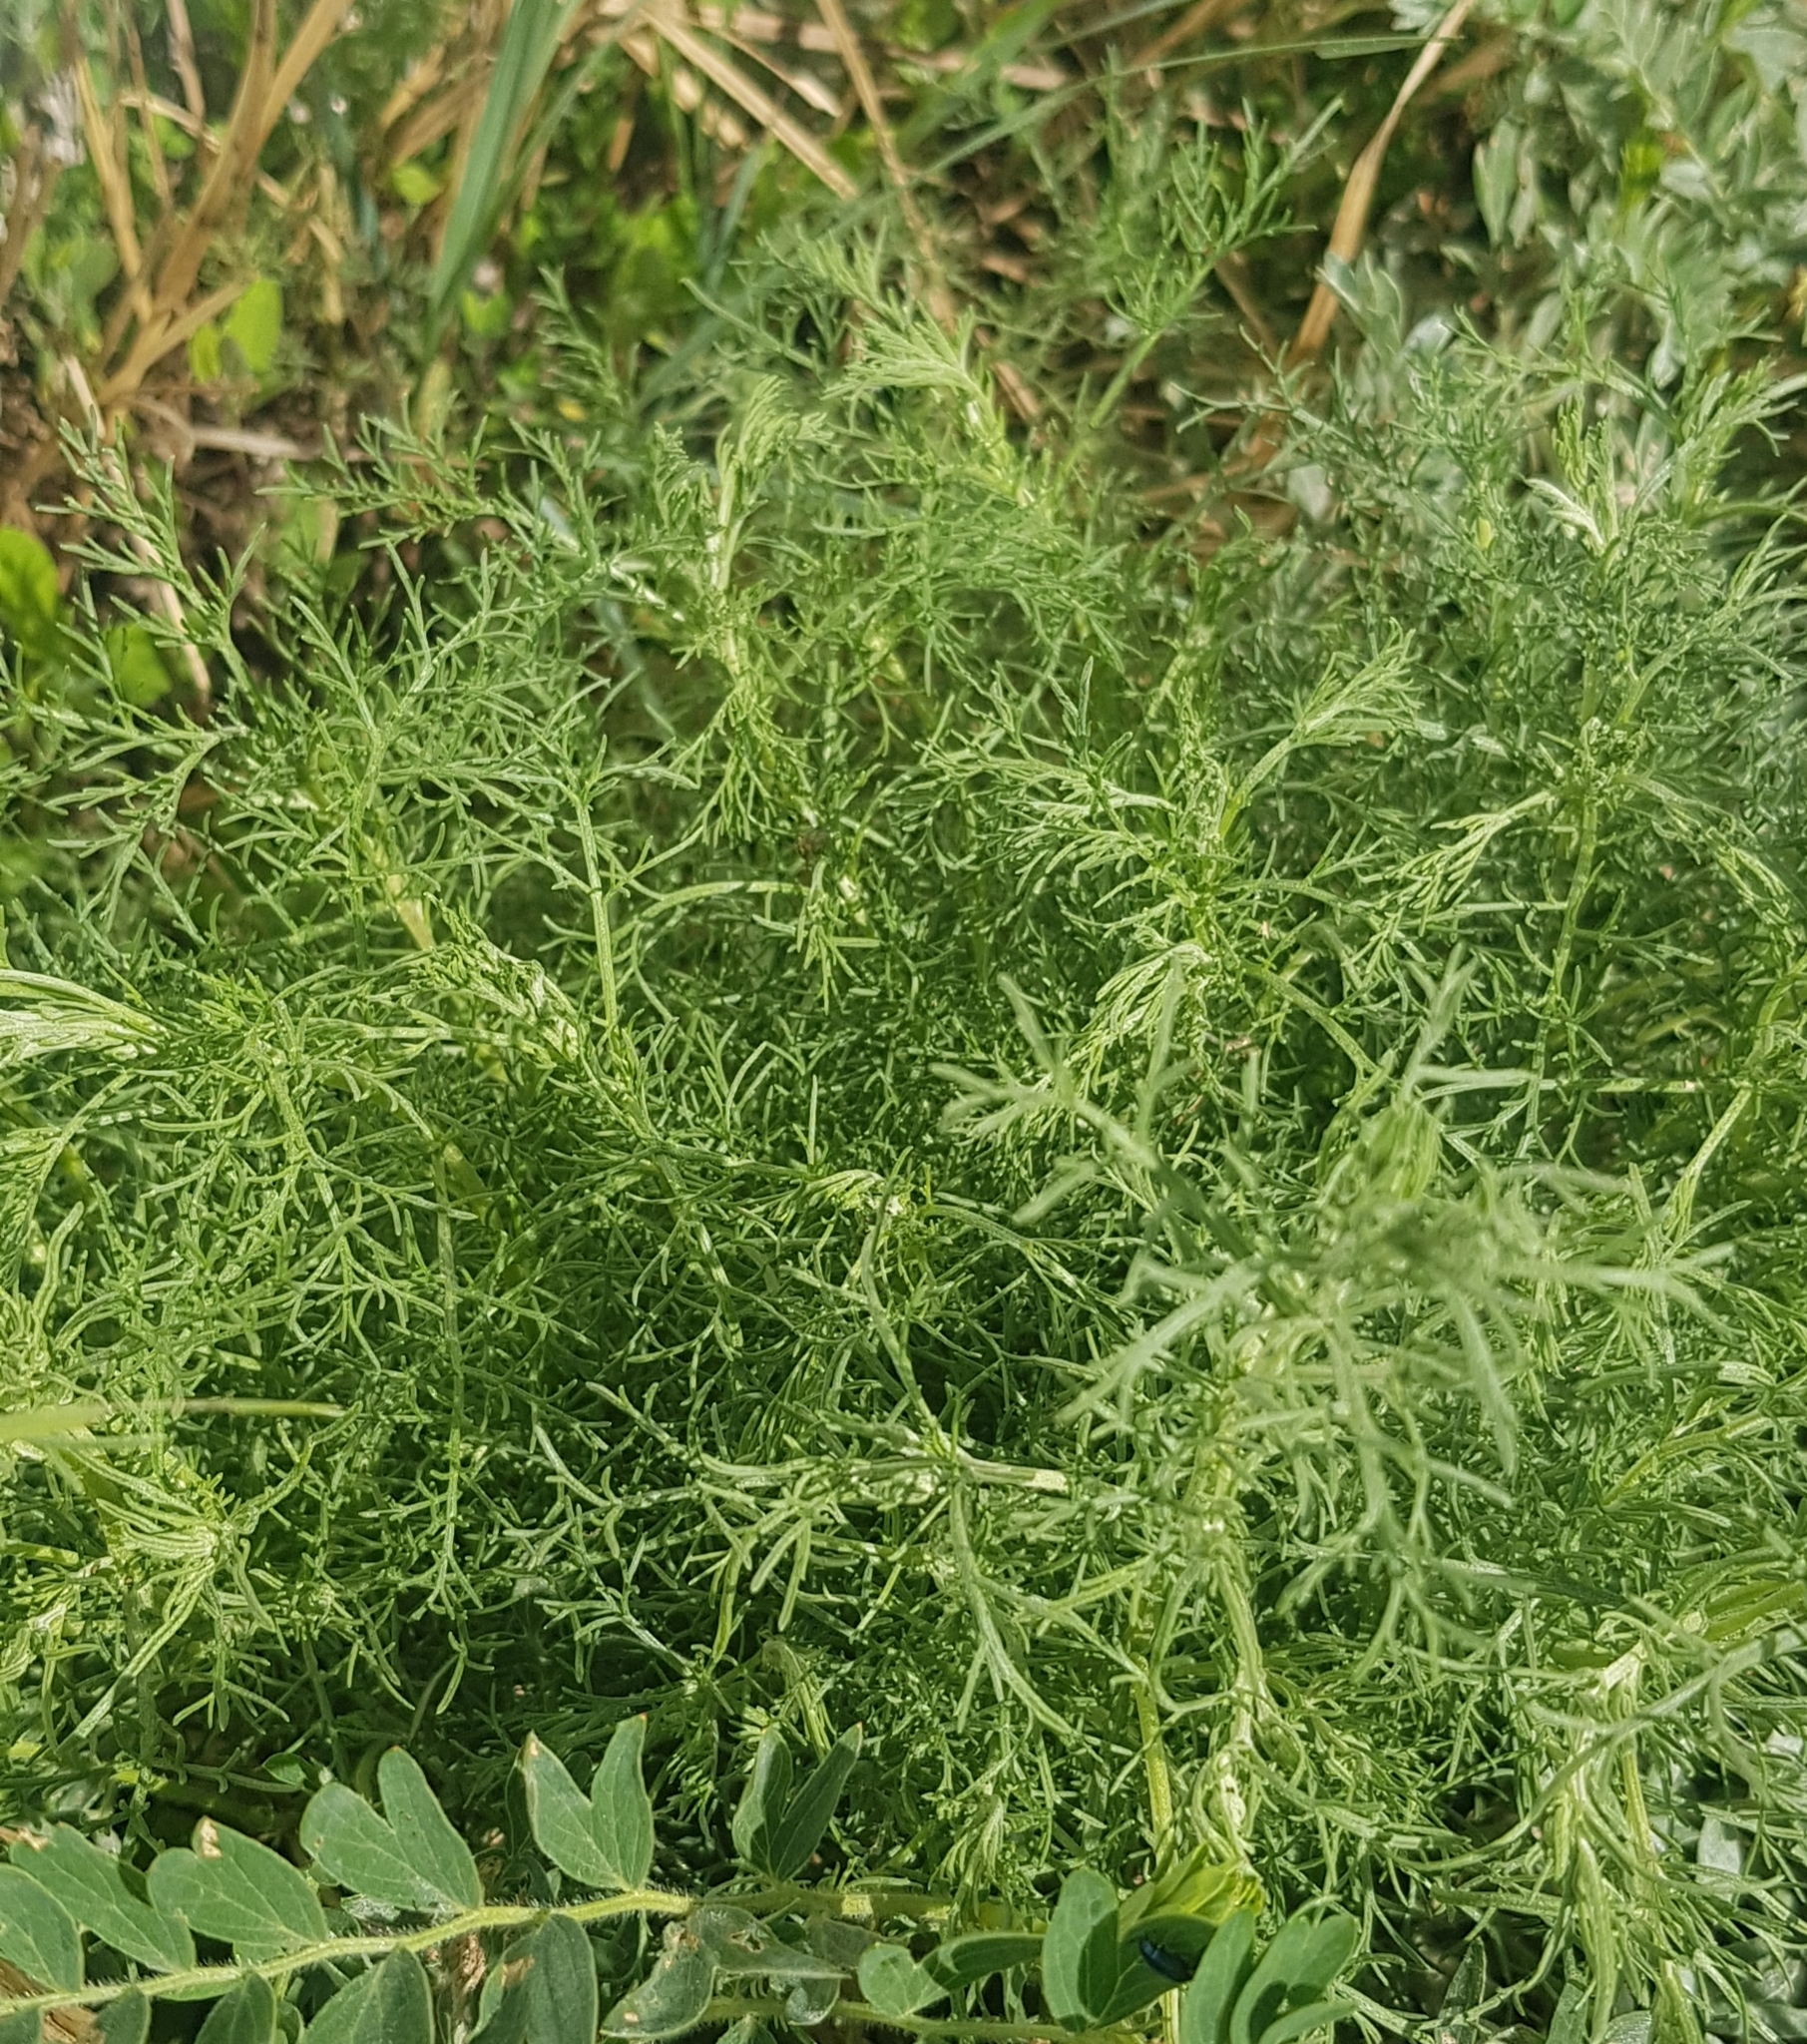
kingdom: Plantae
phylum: Tracheophyta
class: Magnoliopsida
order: Asterales
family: Asteraceae
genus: Artemisia
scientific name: Artemisia adamsii
